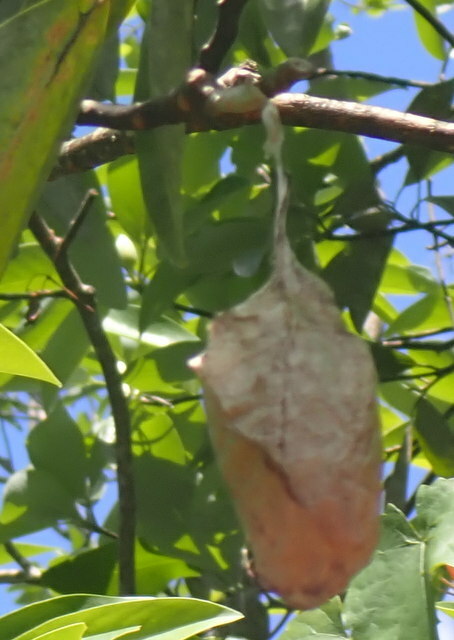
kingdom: Animalia
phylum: Arthropoda
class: Insecta
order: Lepidoptera
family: Saturniidae
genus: Antheraea
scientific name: Antheraea polyphemus
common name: Polyphemus moth
